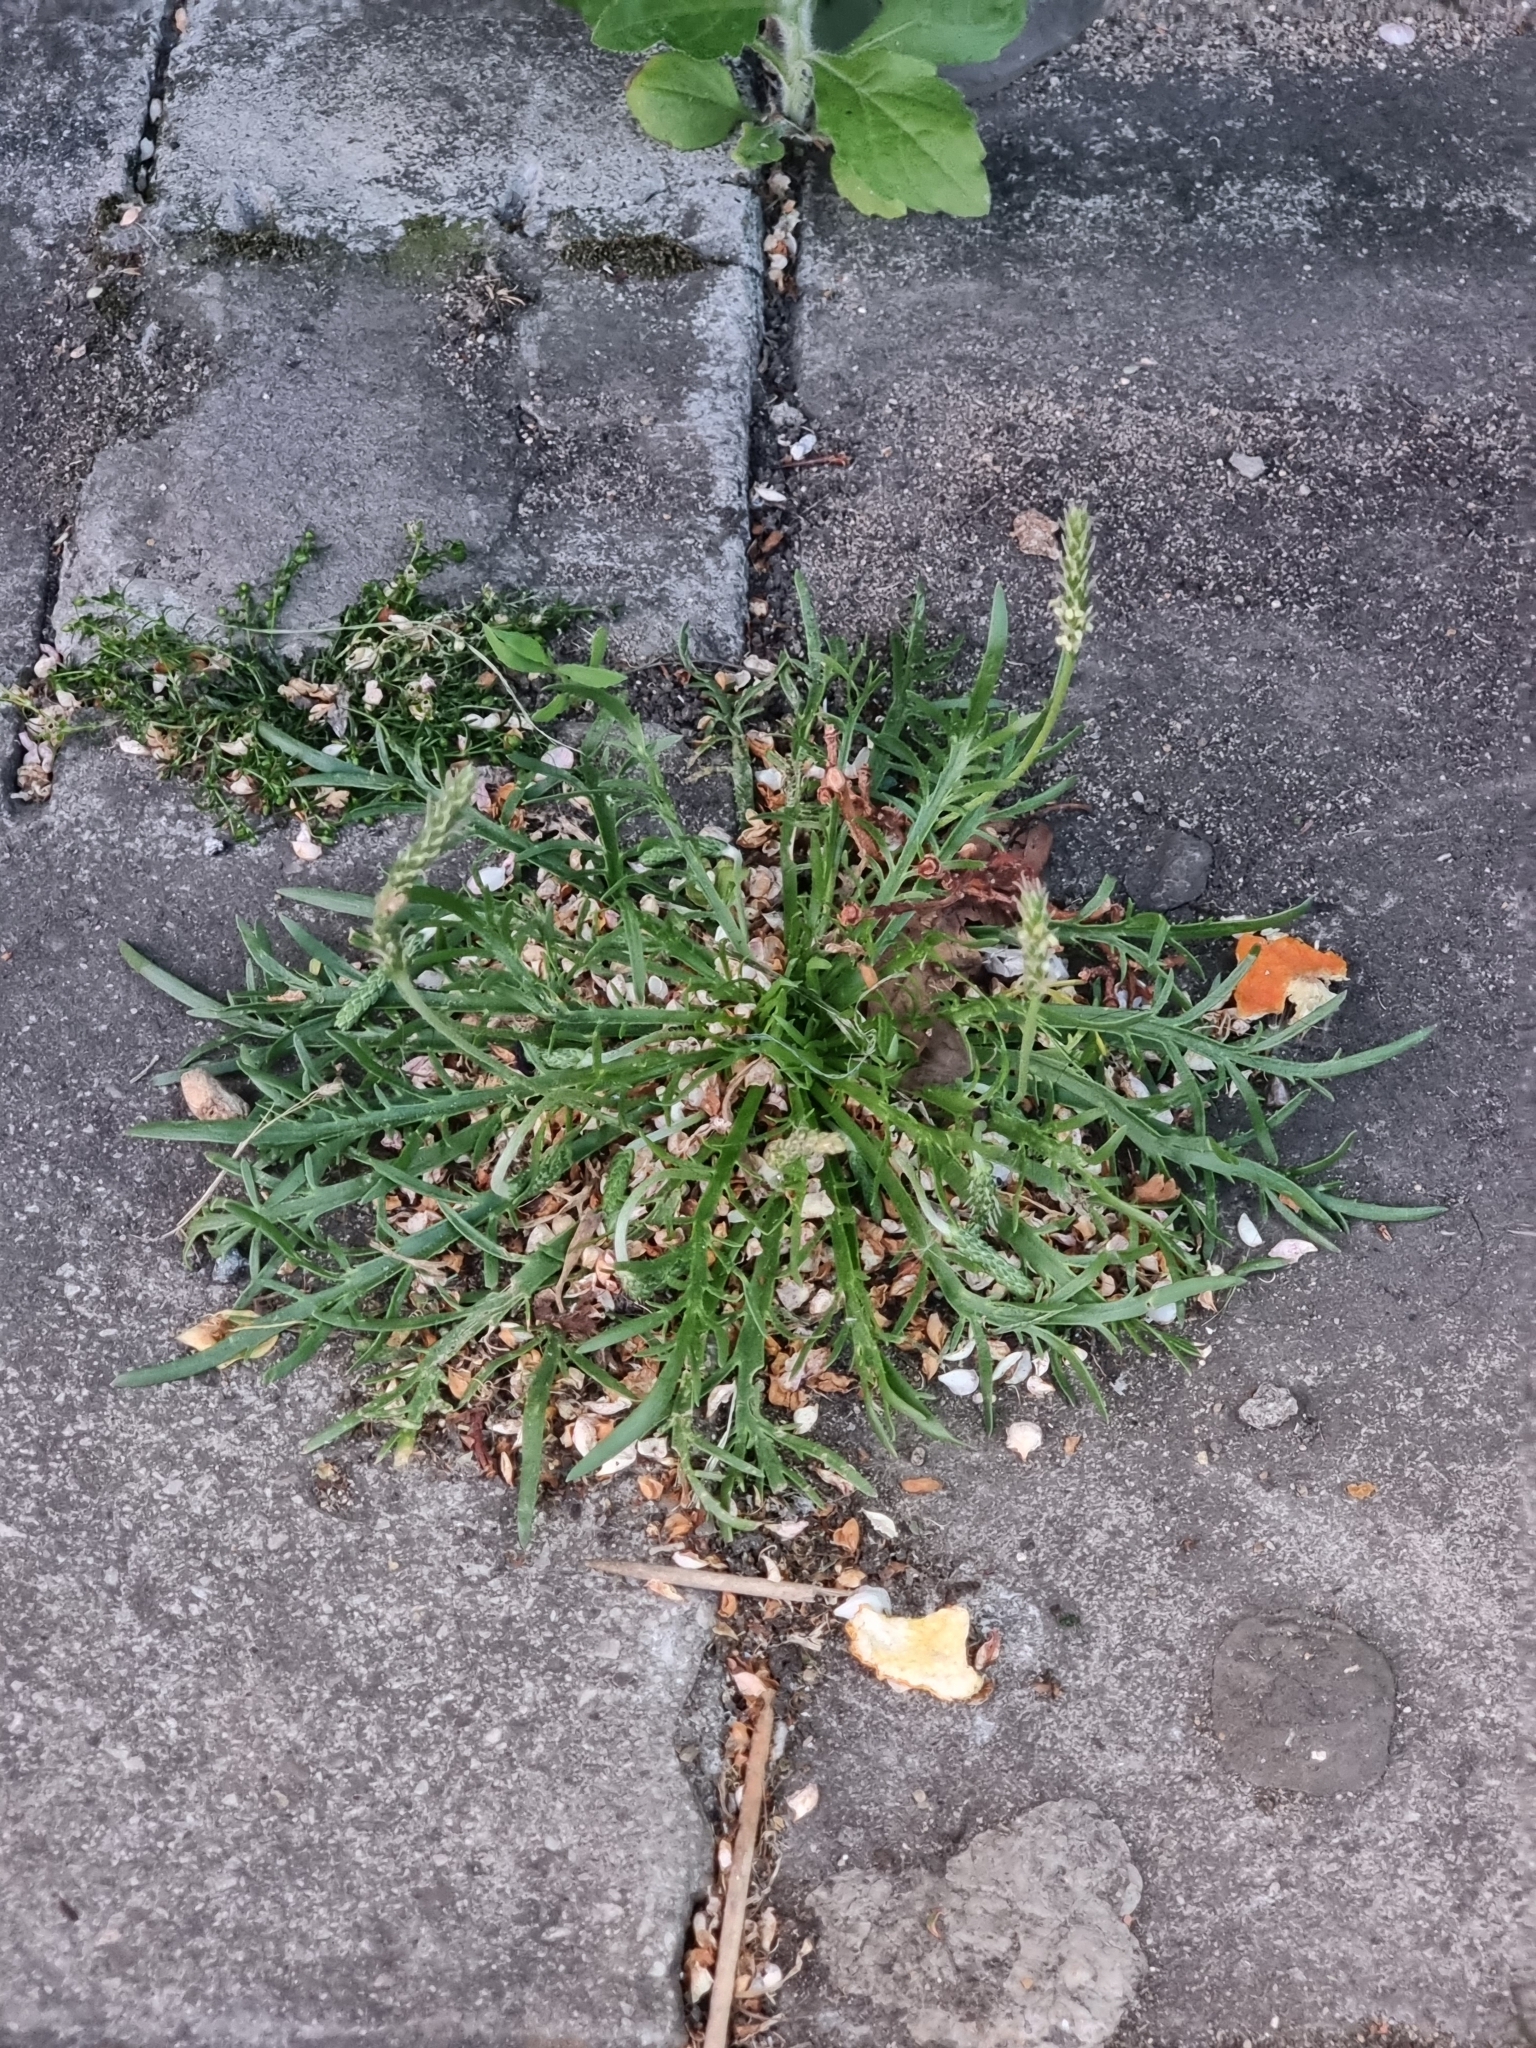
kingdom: Plantae
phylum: Tracheophyta
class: Magnoliopsida
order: Lamiales
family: Plantaginaceae
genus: Plantago
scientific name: Plantago coronopus
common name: Buck's-horn plantain
